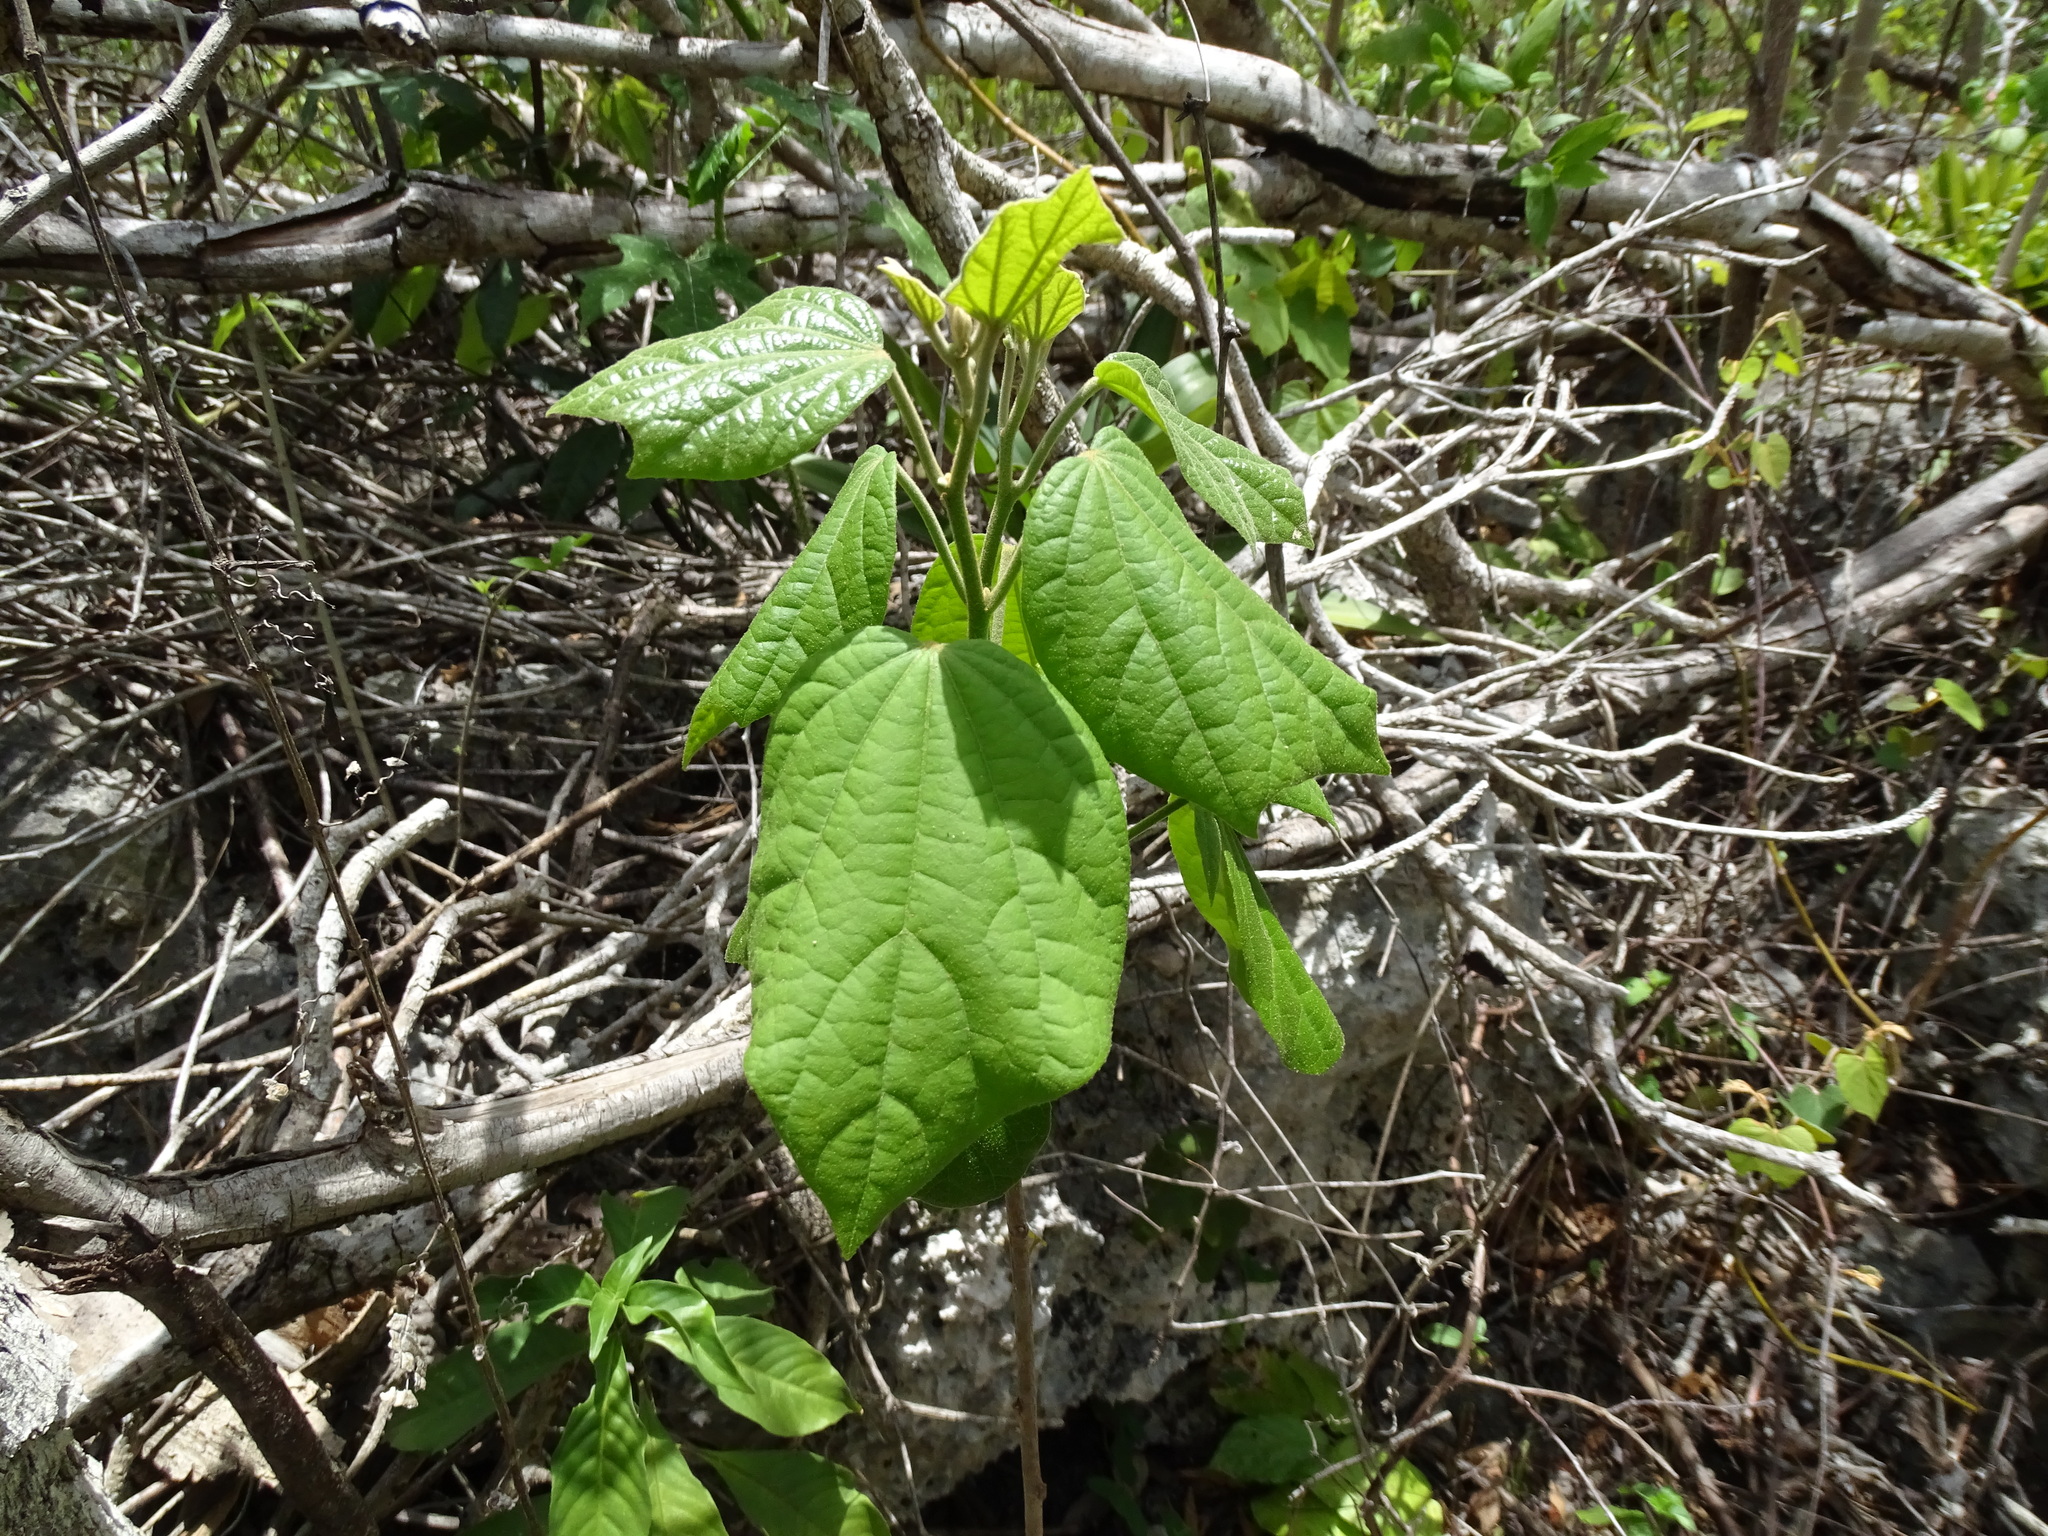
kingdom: Plantae
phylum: Tracheophyta
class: Magnoliopsida
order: Malvales
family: Malvaceae
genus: Hampea
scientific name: Hampea trilobata
